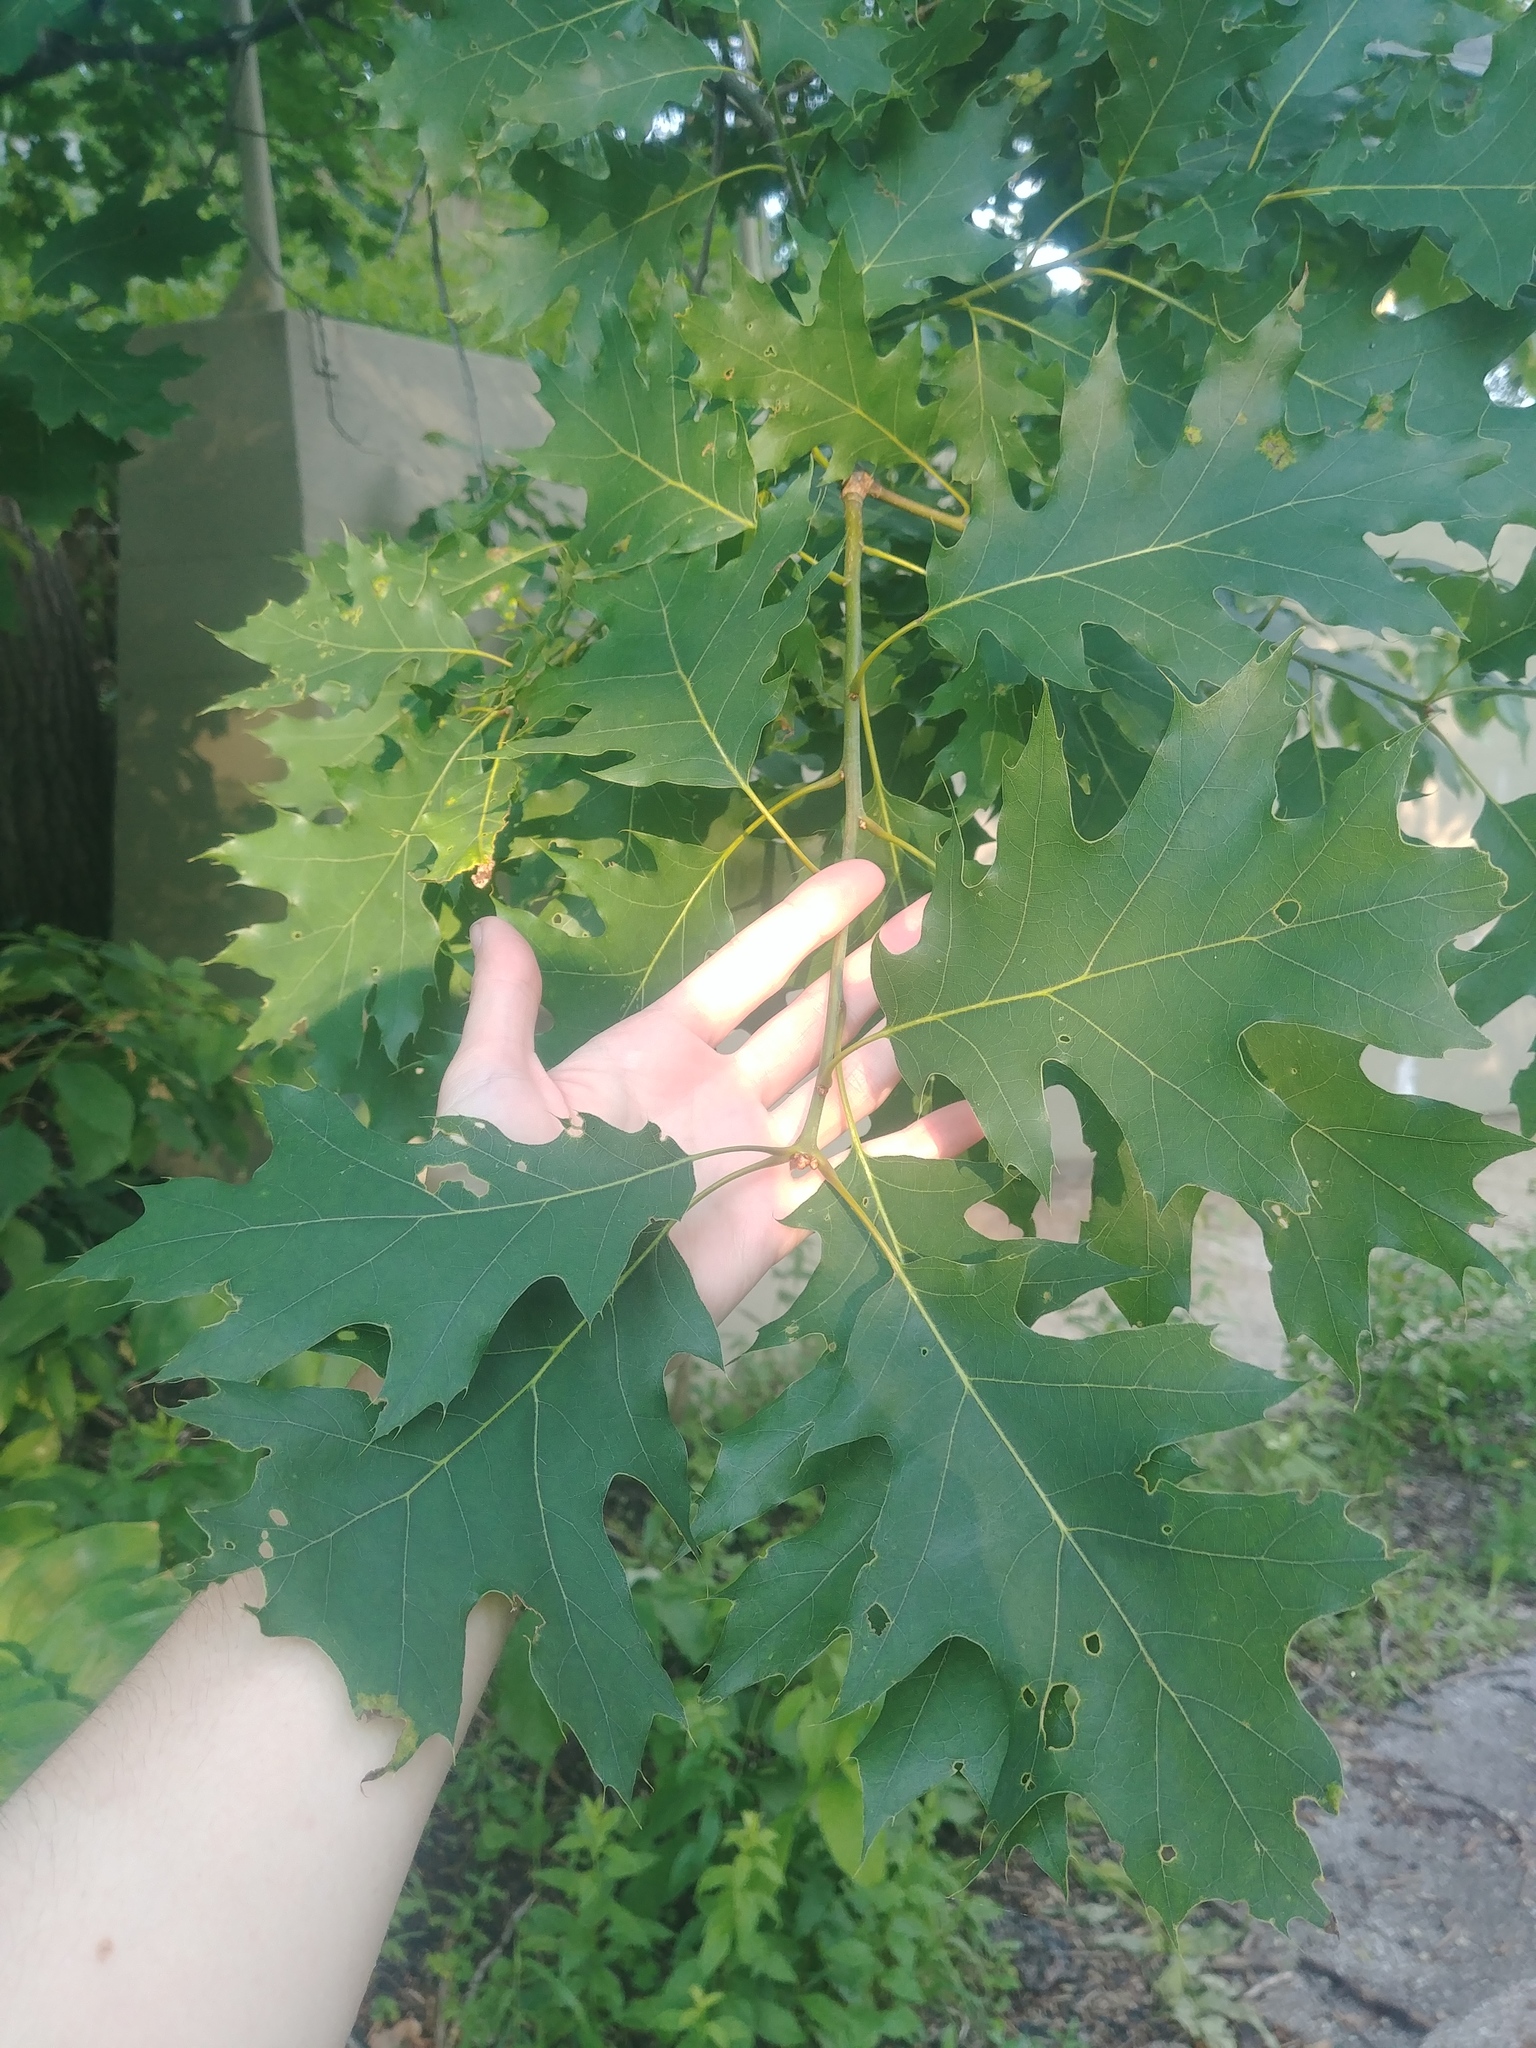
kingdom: Plantae
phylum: Tracheophyta
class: Magnoliopsida
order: Fagales
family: Fagaceae
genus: Quercus
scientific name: Quercus rubra
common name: Red oak
